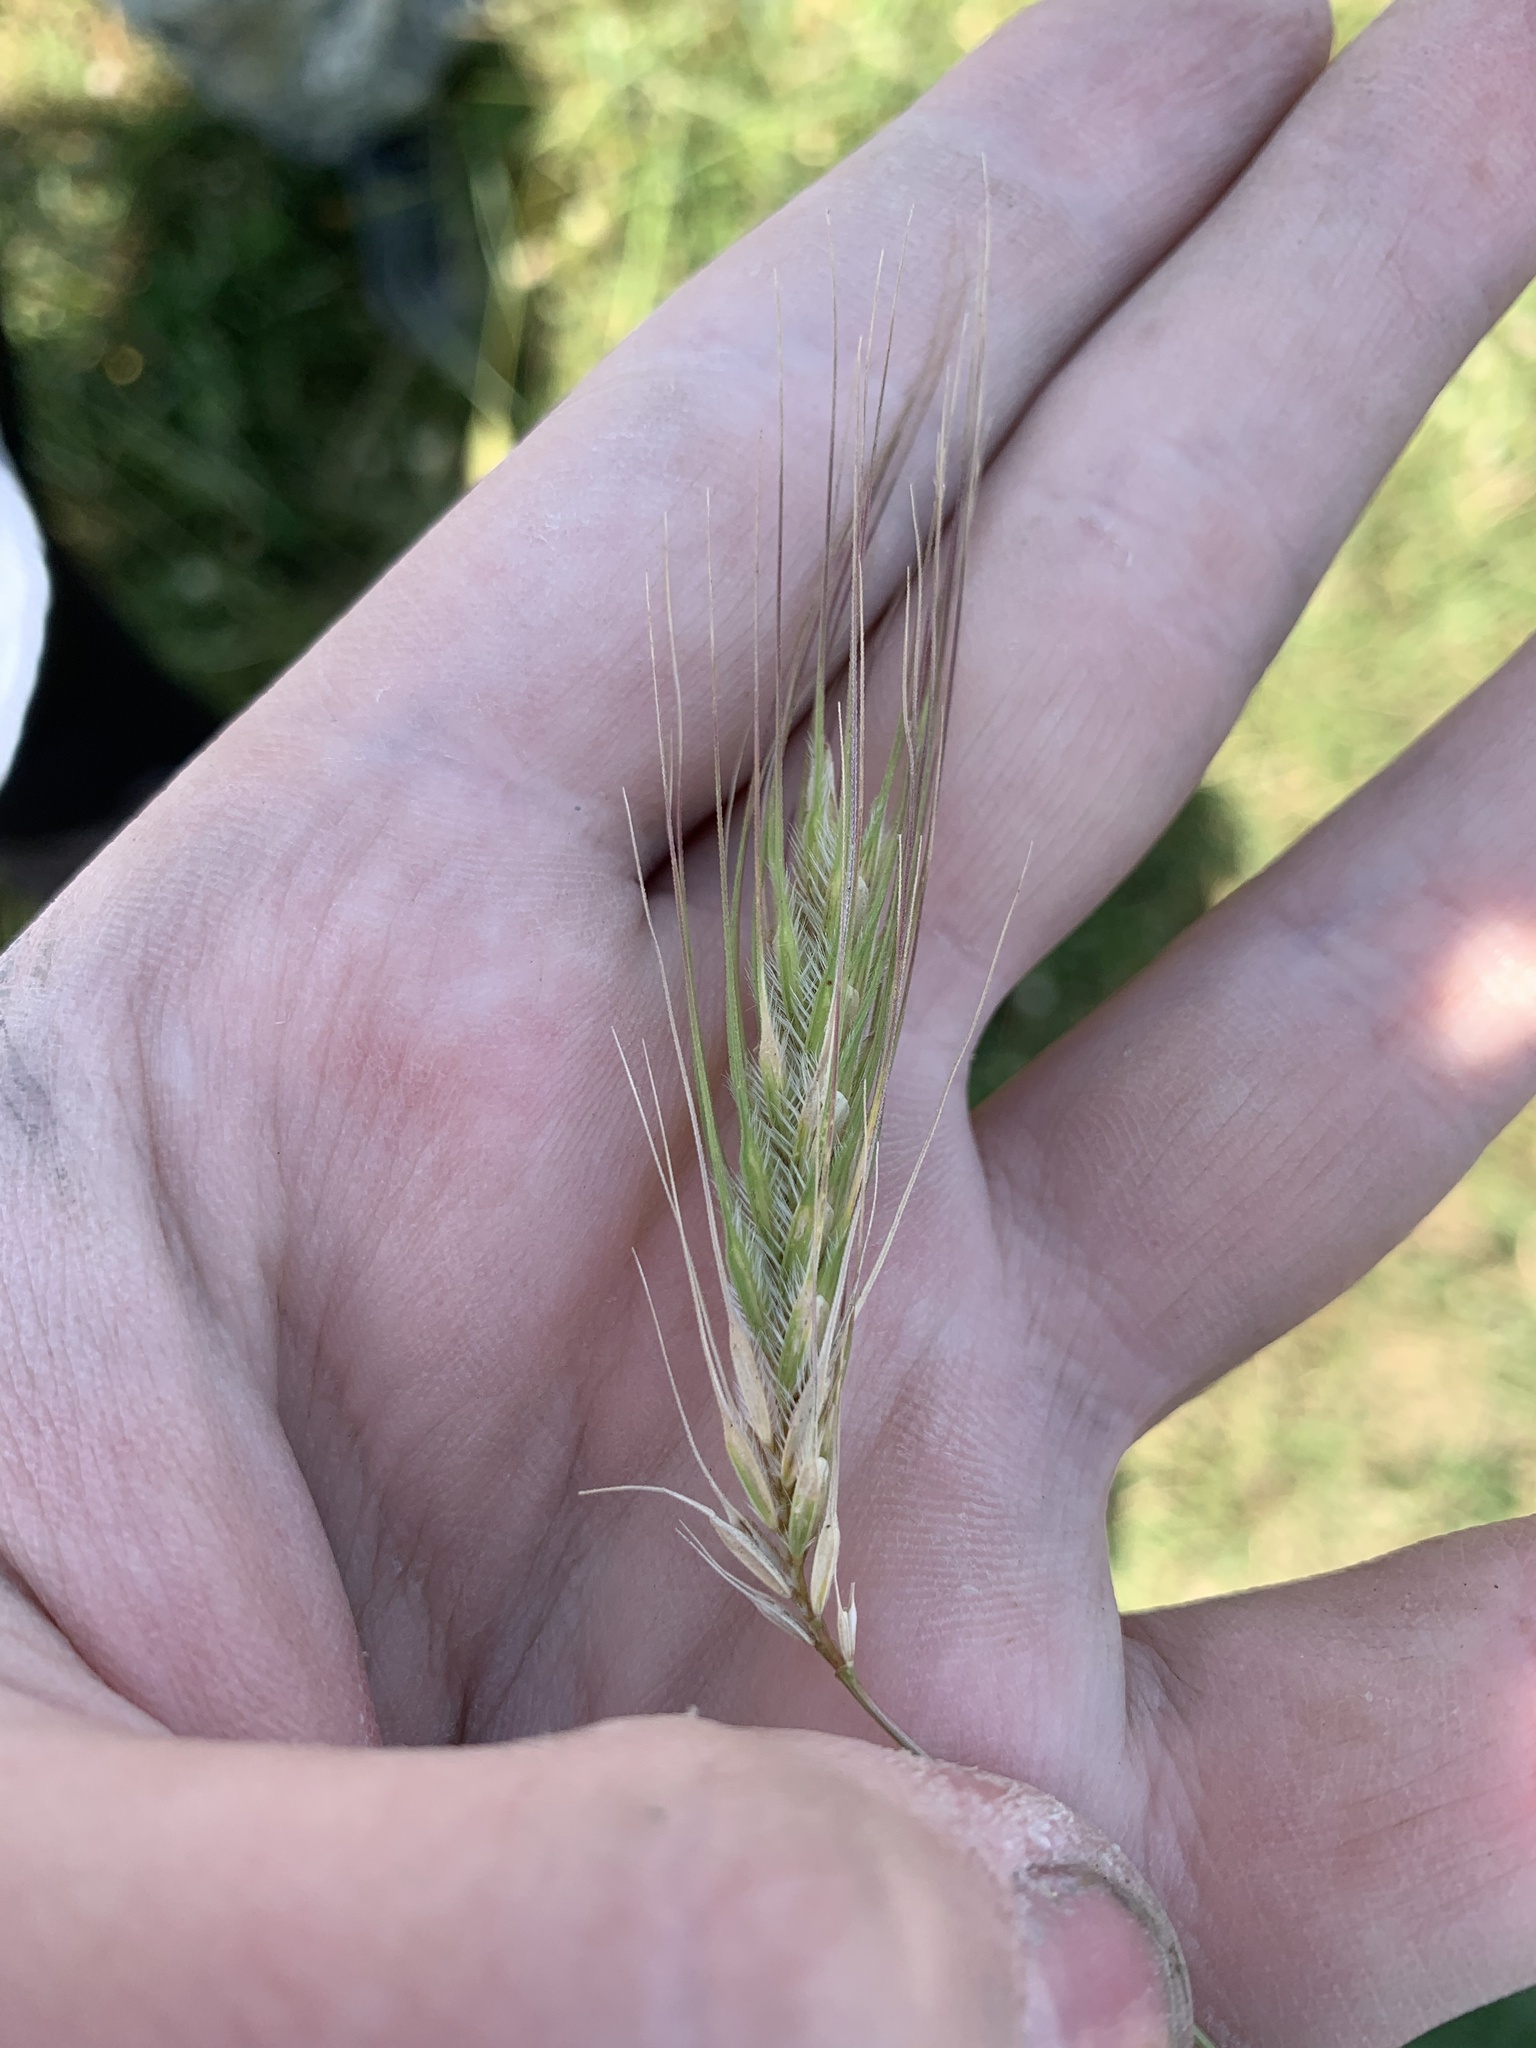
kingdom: Plantae
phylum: Tracheophyta
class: Liliopsida
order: Poales
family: Poaceae
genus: Dasypyrum
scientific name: Dasypyrum villosum
